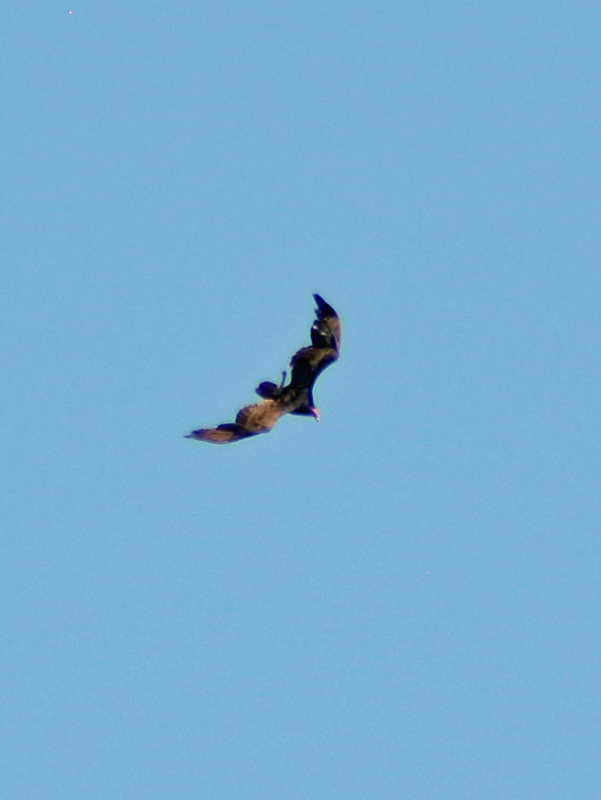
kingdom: Animalia
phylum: Chordata
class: Aves
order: Accipitriformes
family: Cathartidae
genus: Cathartes
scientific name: Cathartes aura
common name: Turkey vulture
